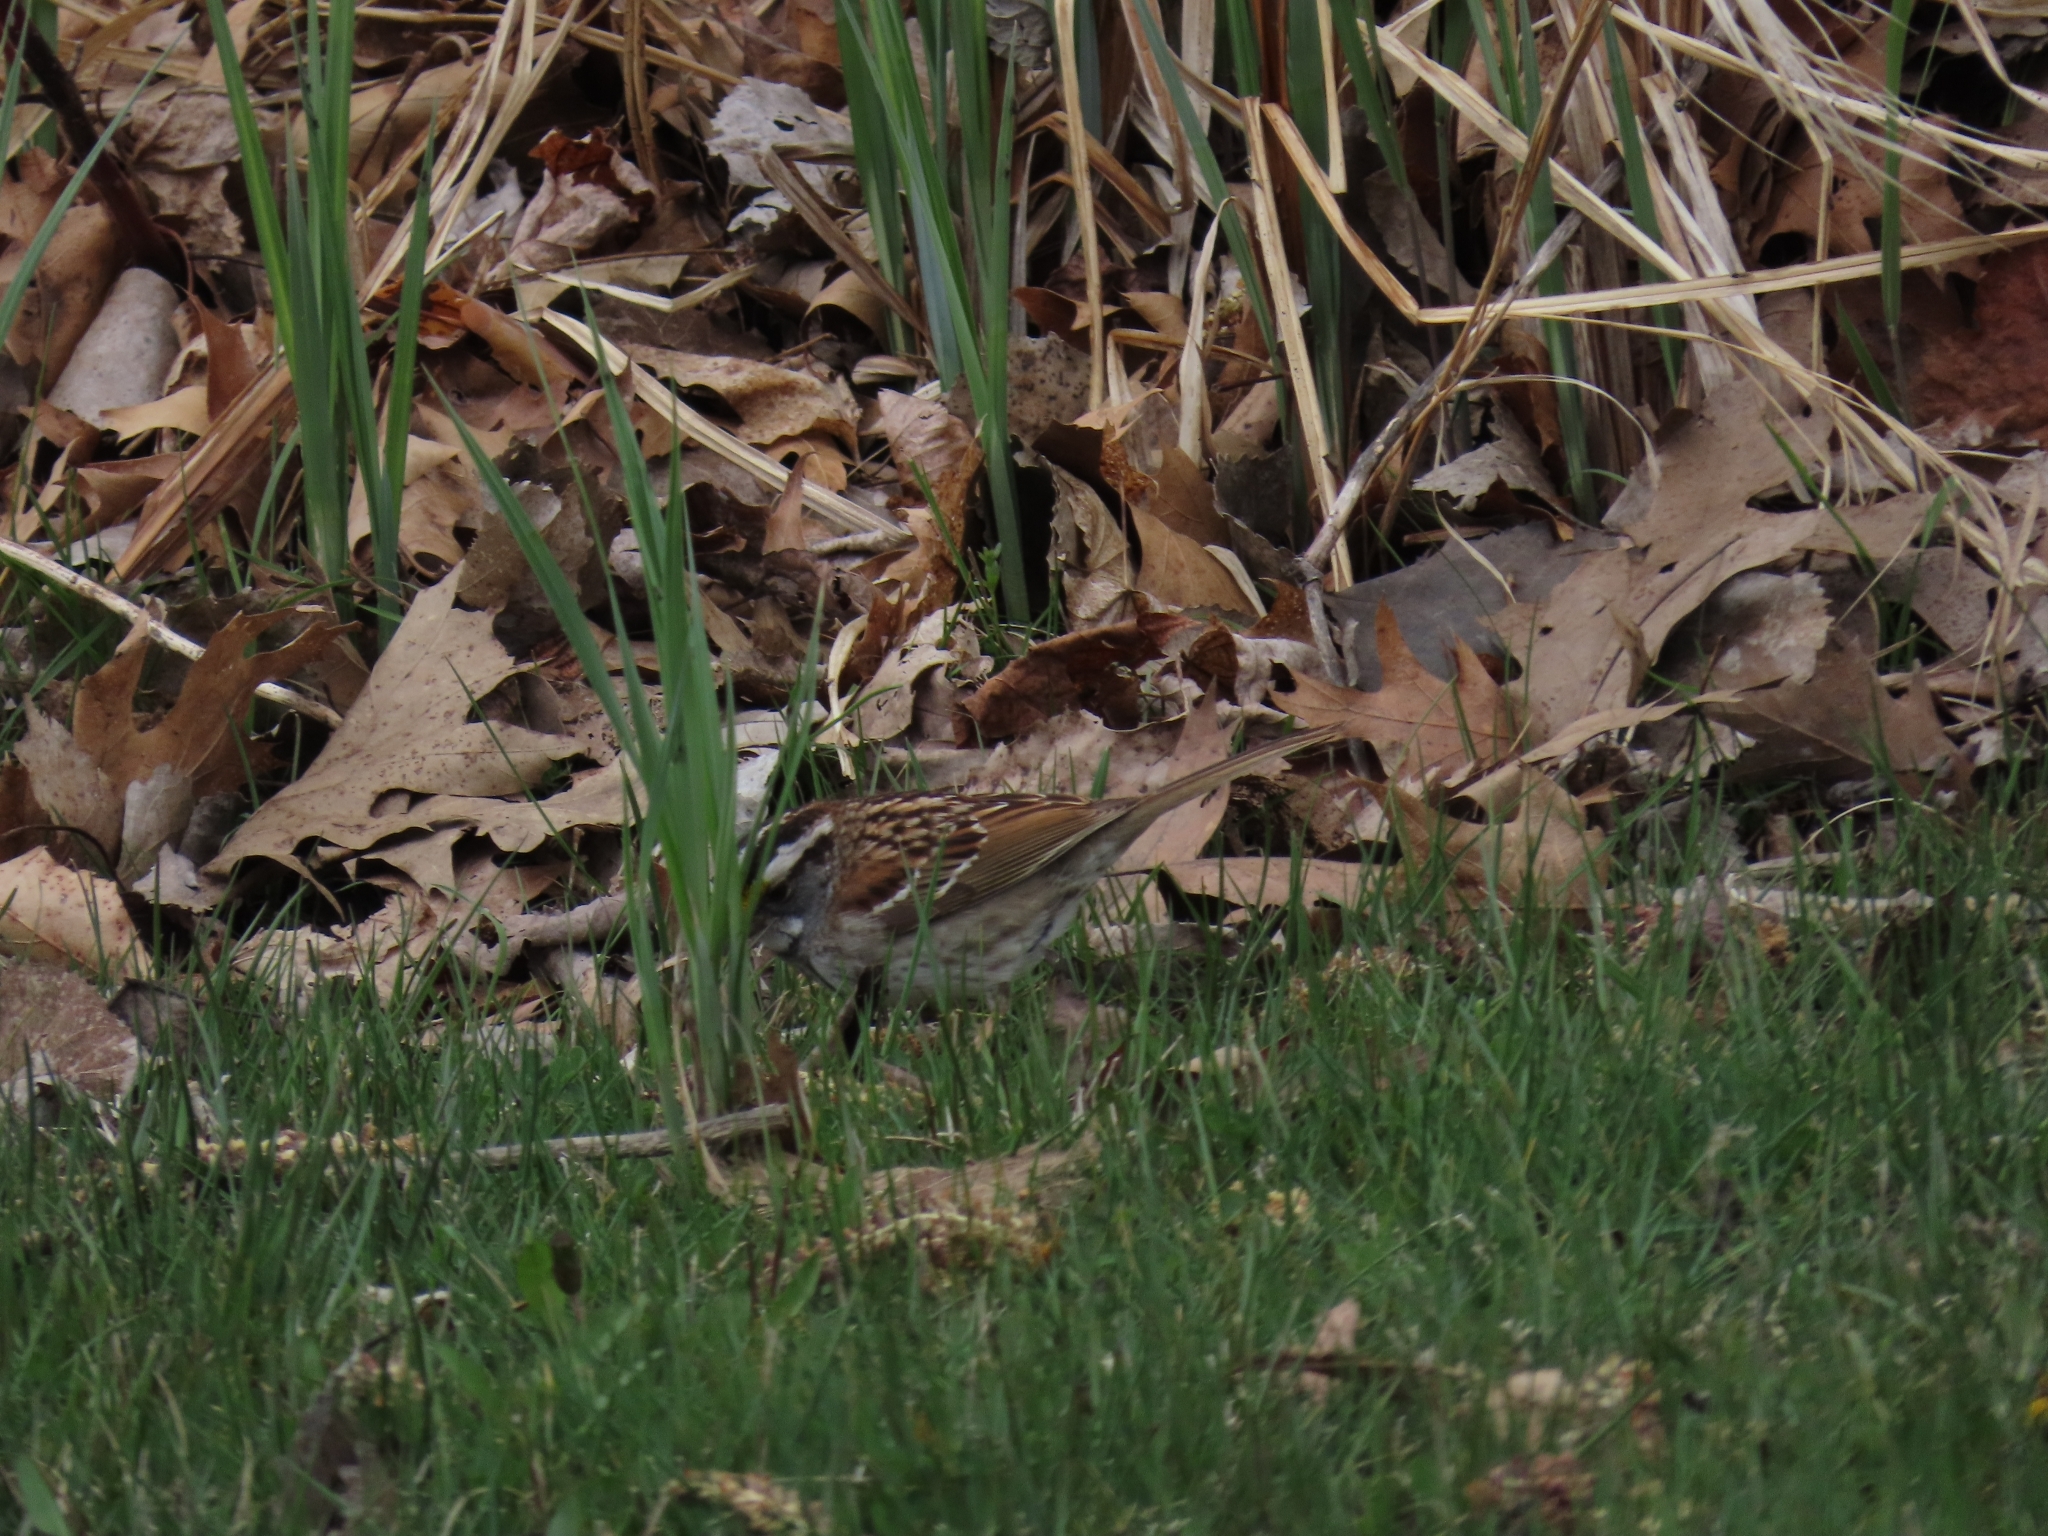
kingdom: Animalia
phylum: Chordata
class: Aves
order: Passeriformes
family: Passerellidae
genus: Zonotrichia
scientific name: Zonotrichia albicollis
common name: White-throated sparrow
